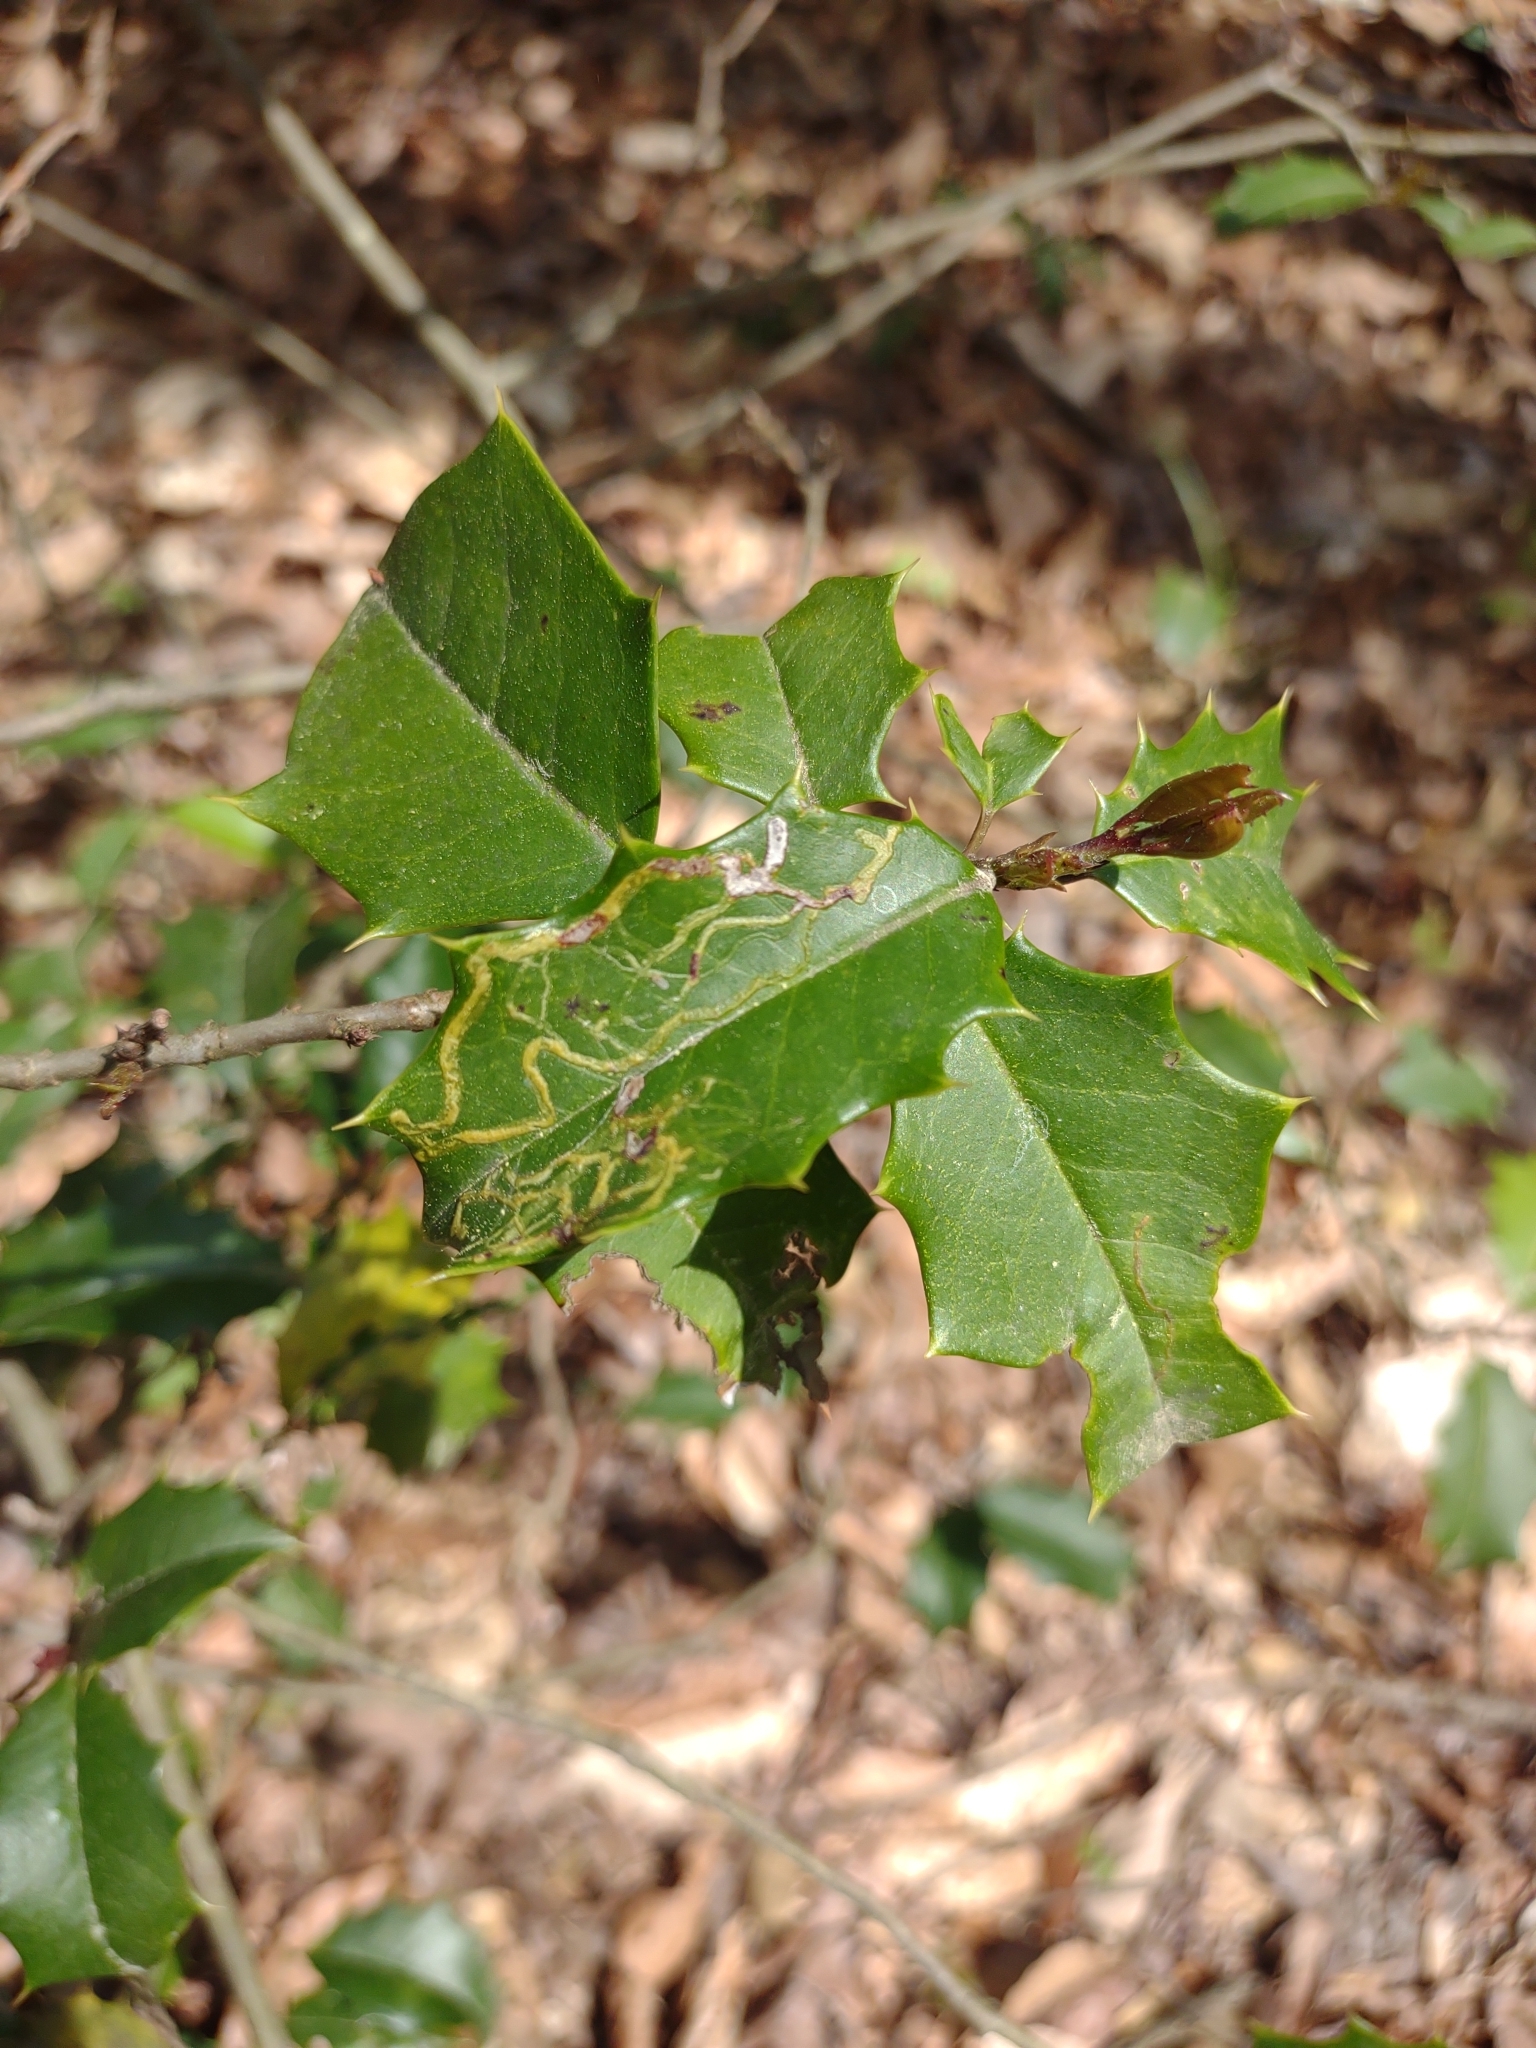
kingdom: Plantae
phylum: Tracheophyta
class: Magnoliopsida
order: Aquifoliales
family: Aquifoliaceae
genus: Ilex
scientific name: Ilex opaca
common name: American holly
